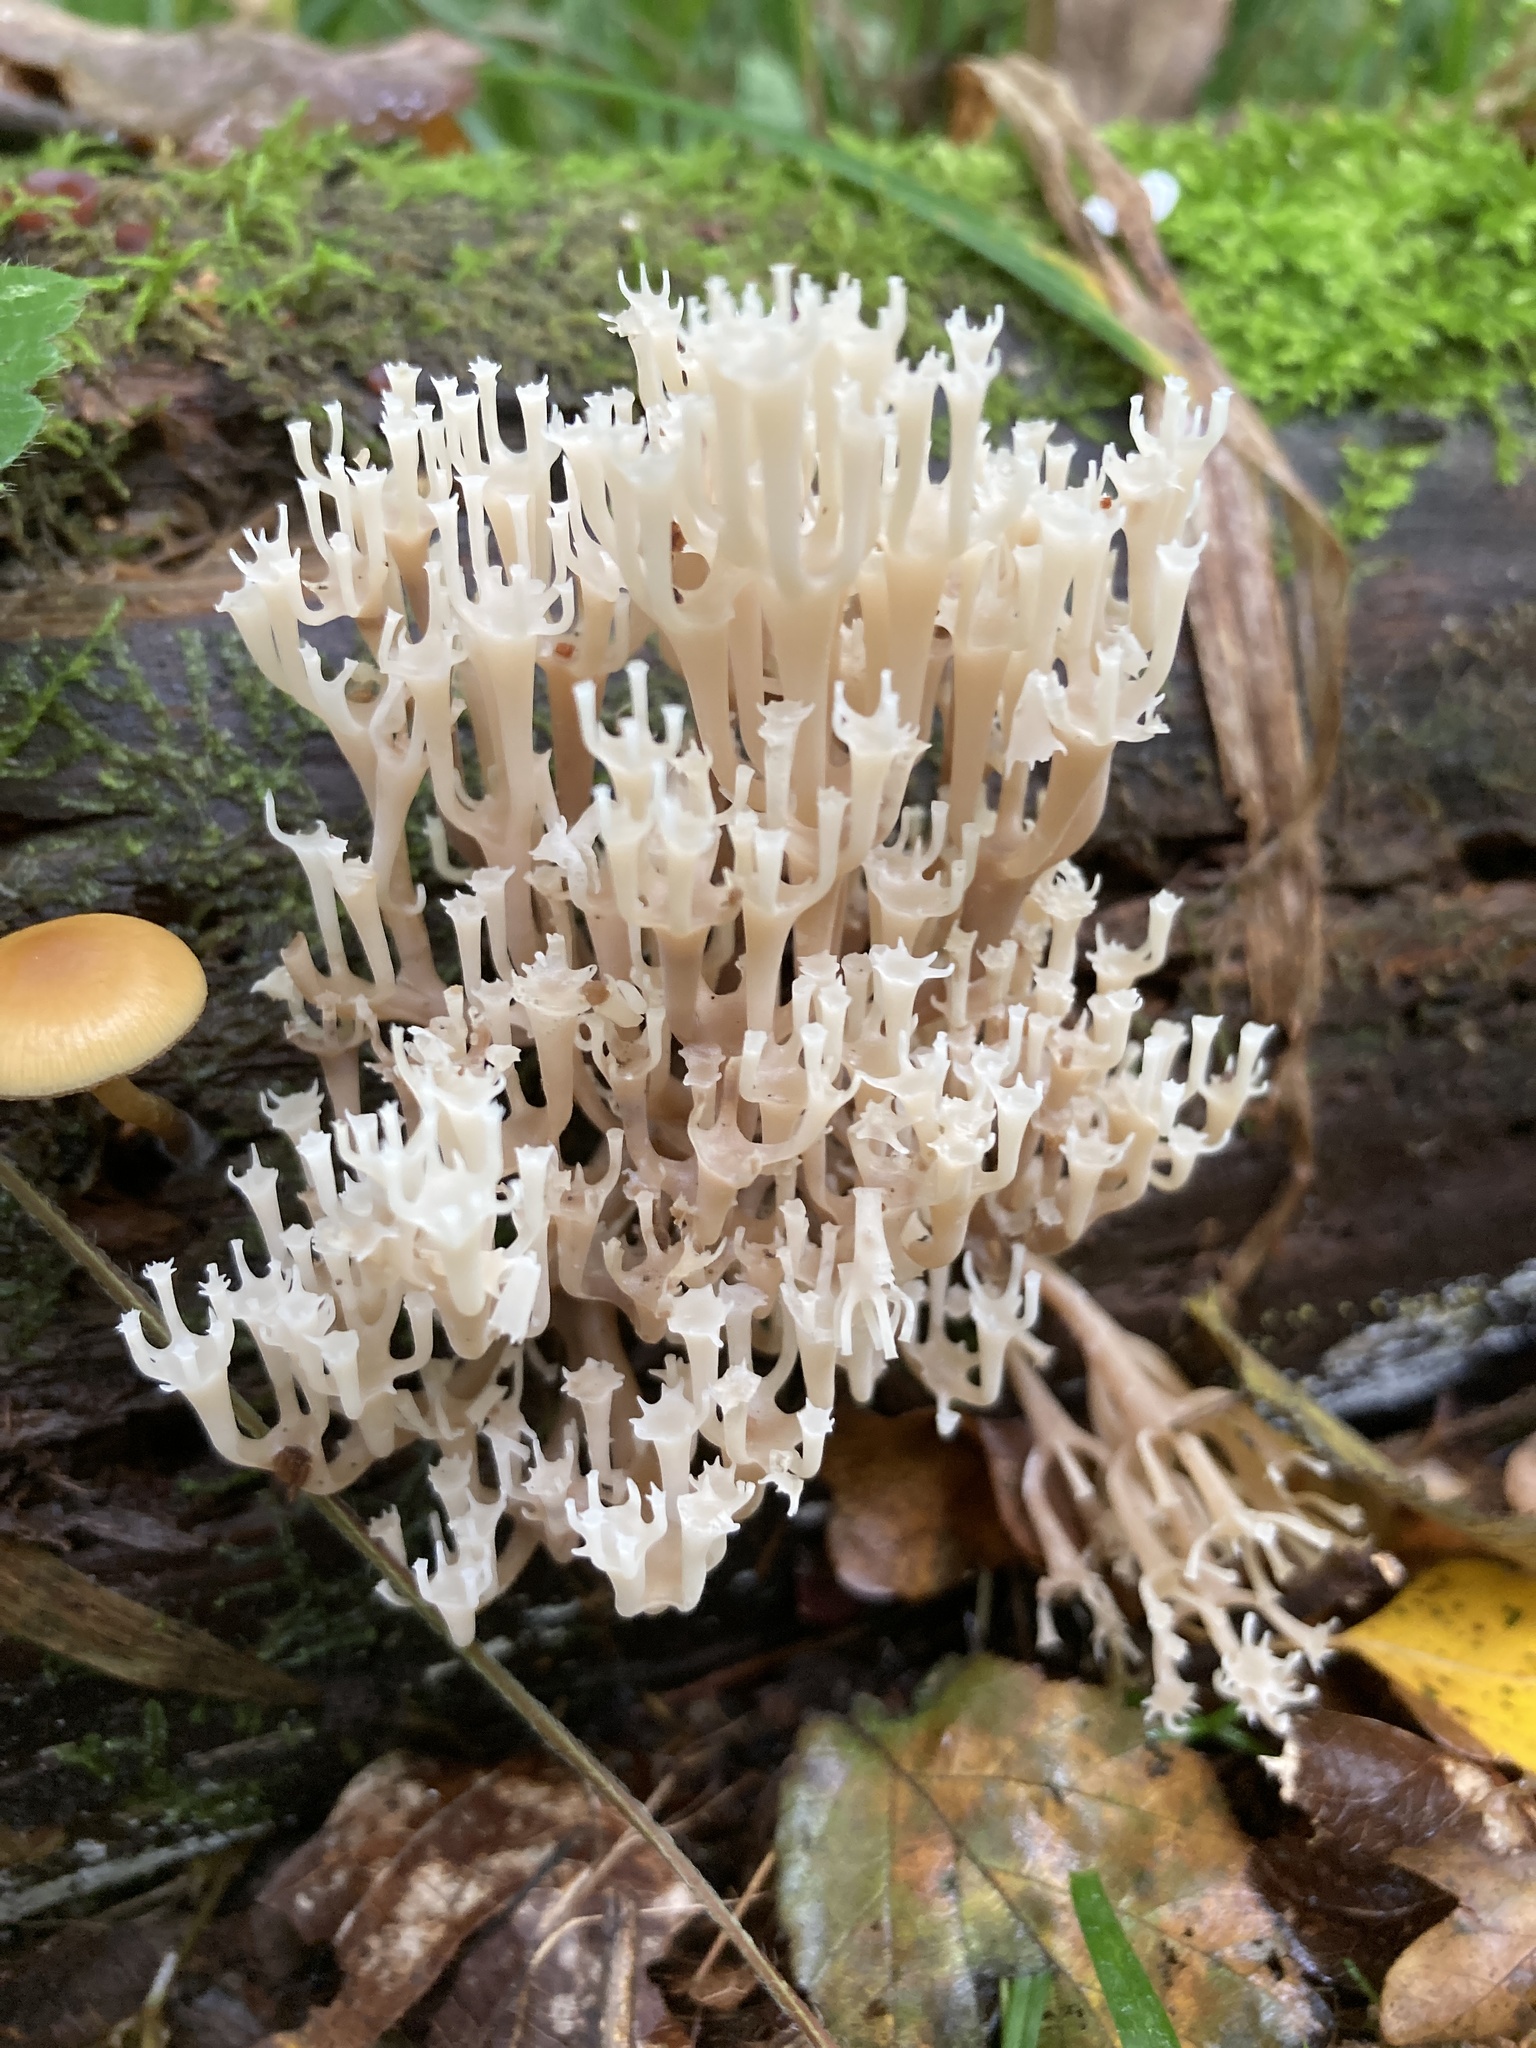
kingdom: Fungi
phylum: Basidiomycota
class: Agaricomycetes
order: Russulales
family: Auriscalpiaceae
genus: Artomyces
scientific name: Artomyces pyxidatus
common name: Crown-tipped coral fungus
